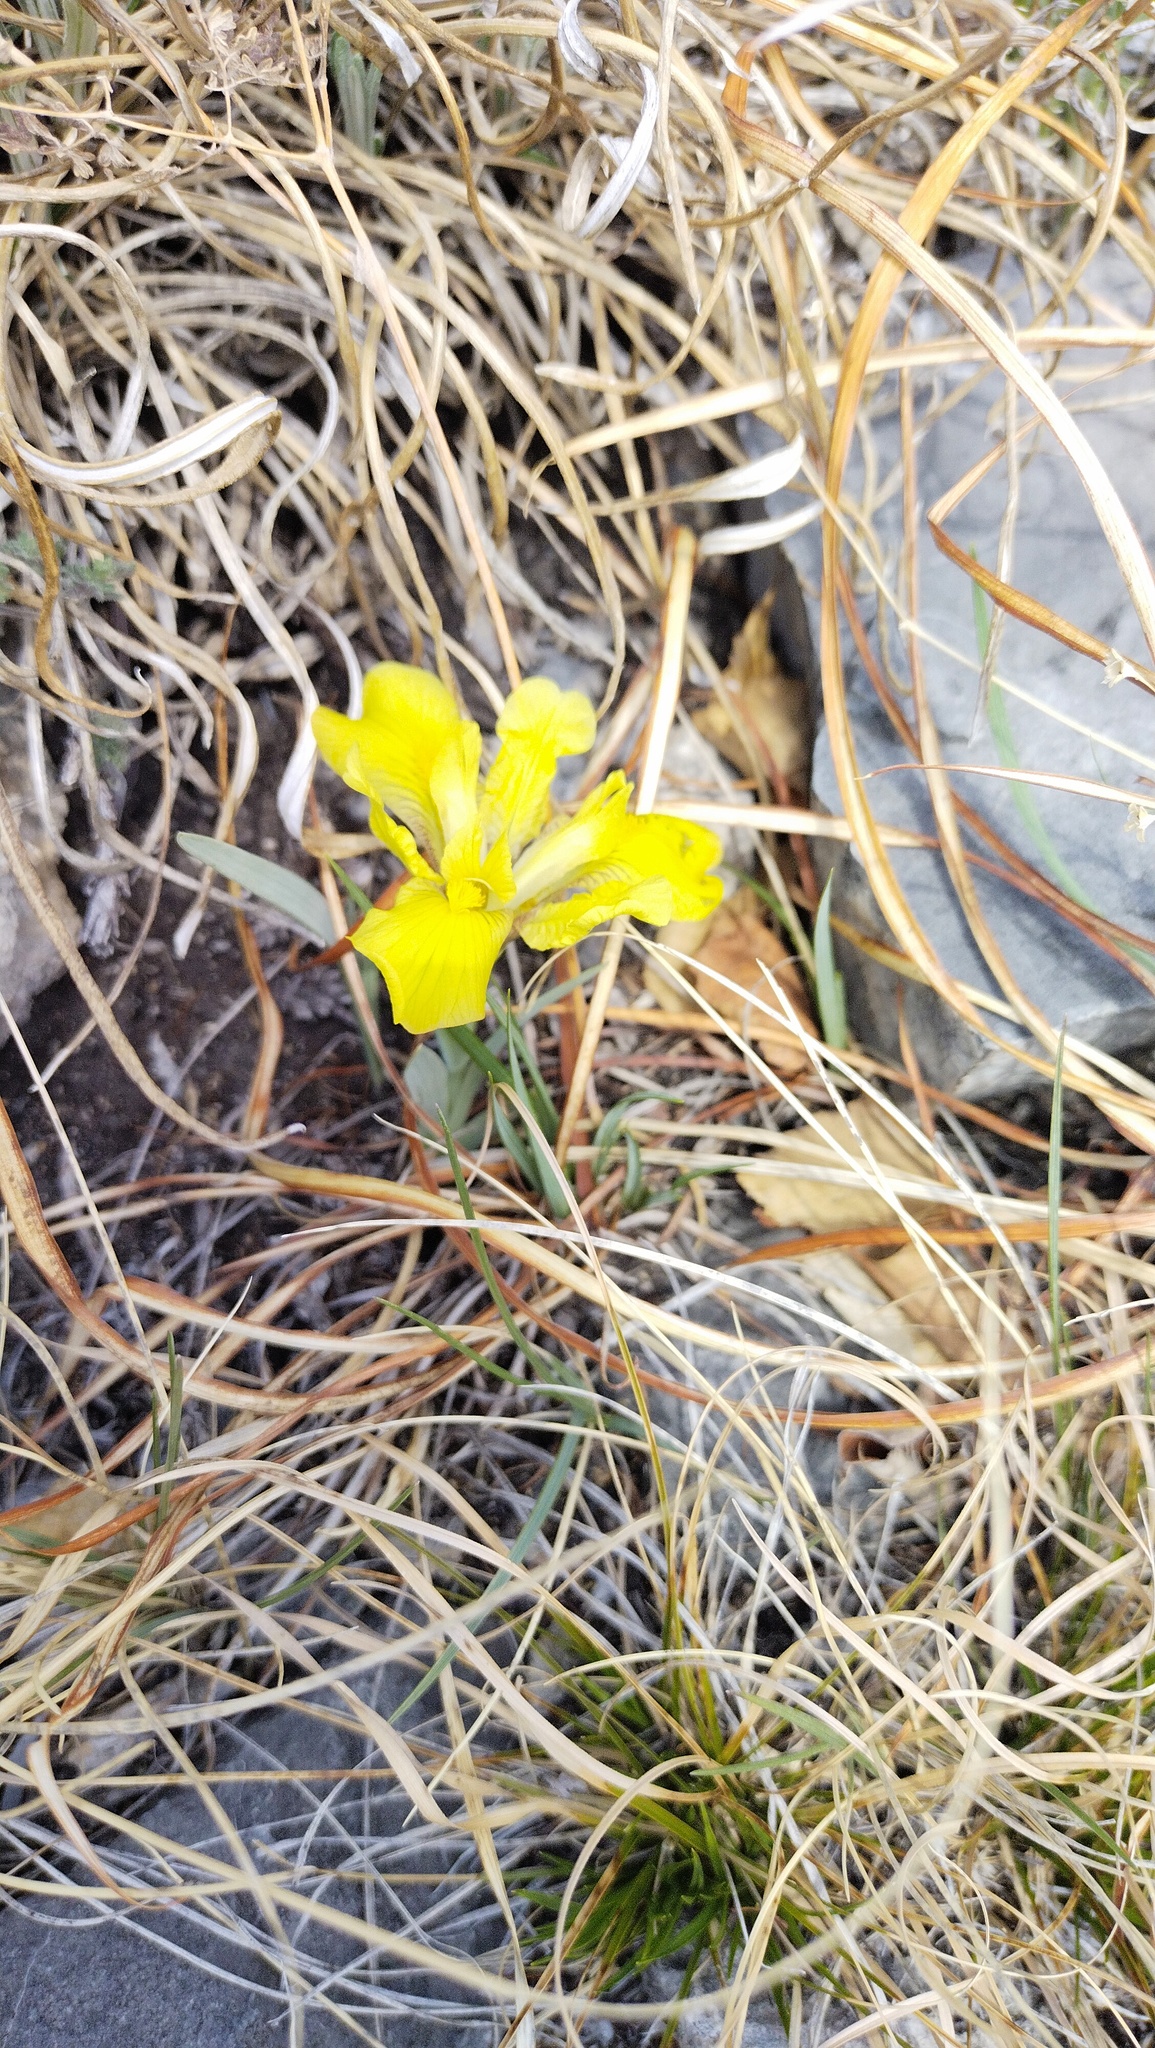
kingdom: Plantae
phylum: Tracheophyta
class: Liliopsida
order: Asparagales
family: Iridaceae
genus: Iris
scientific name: Iris humilis
